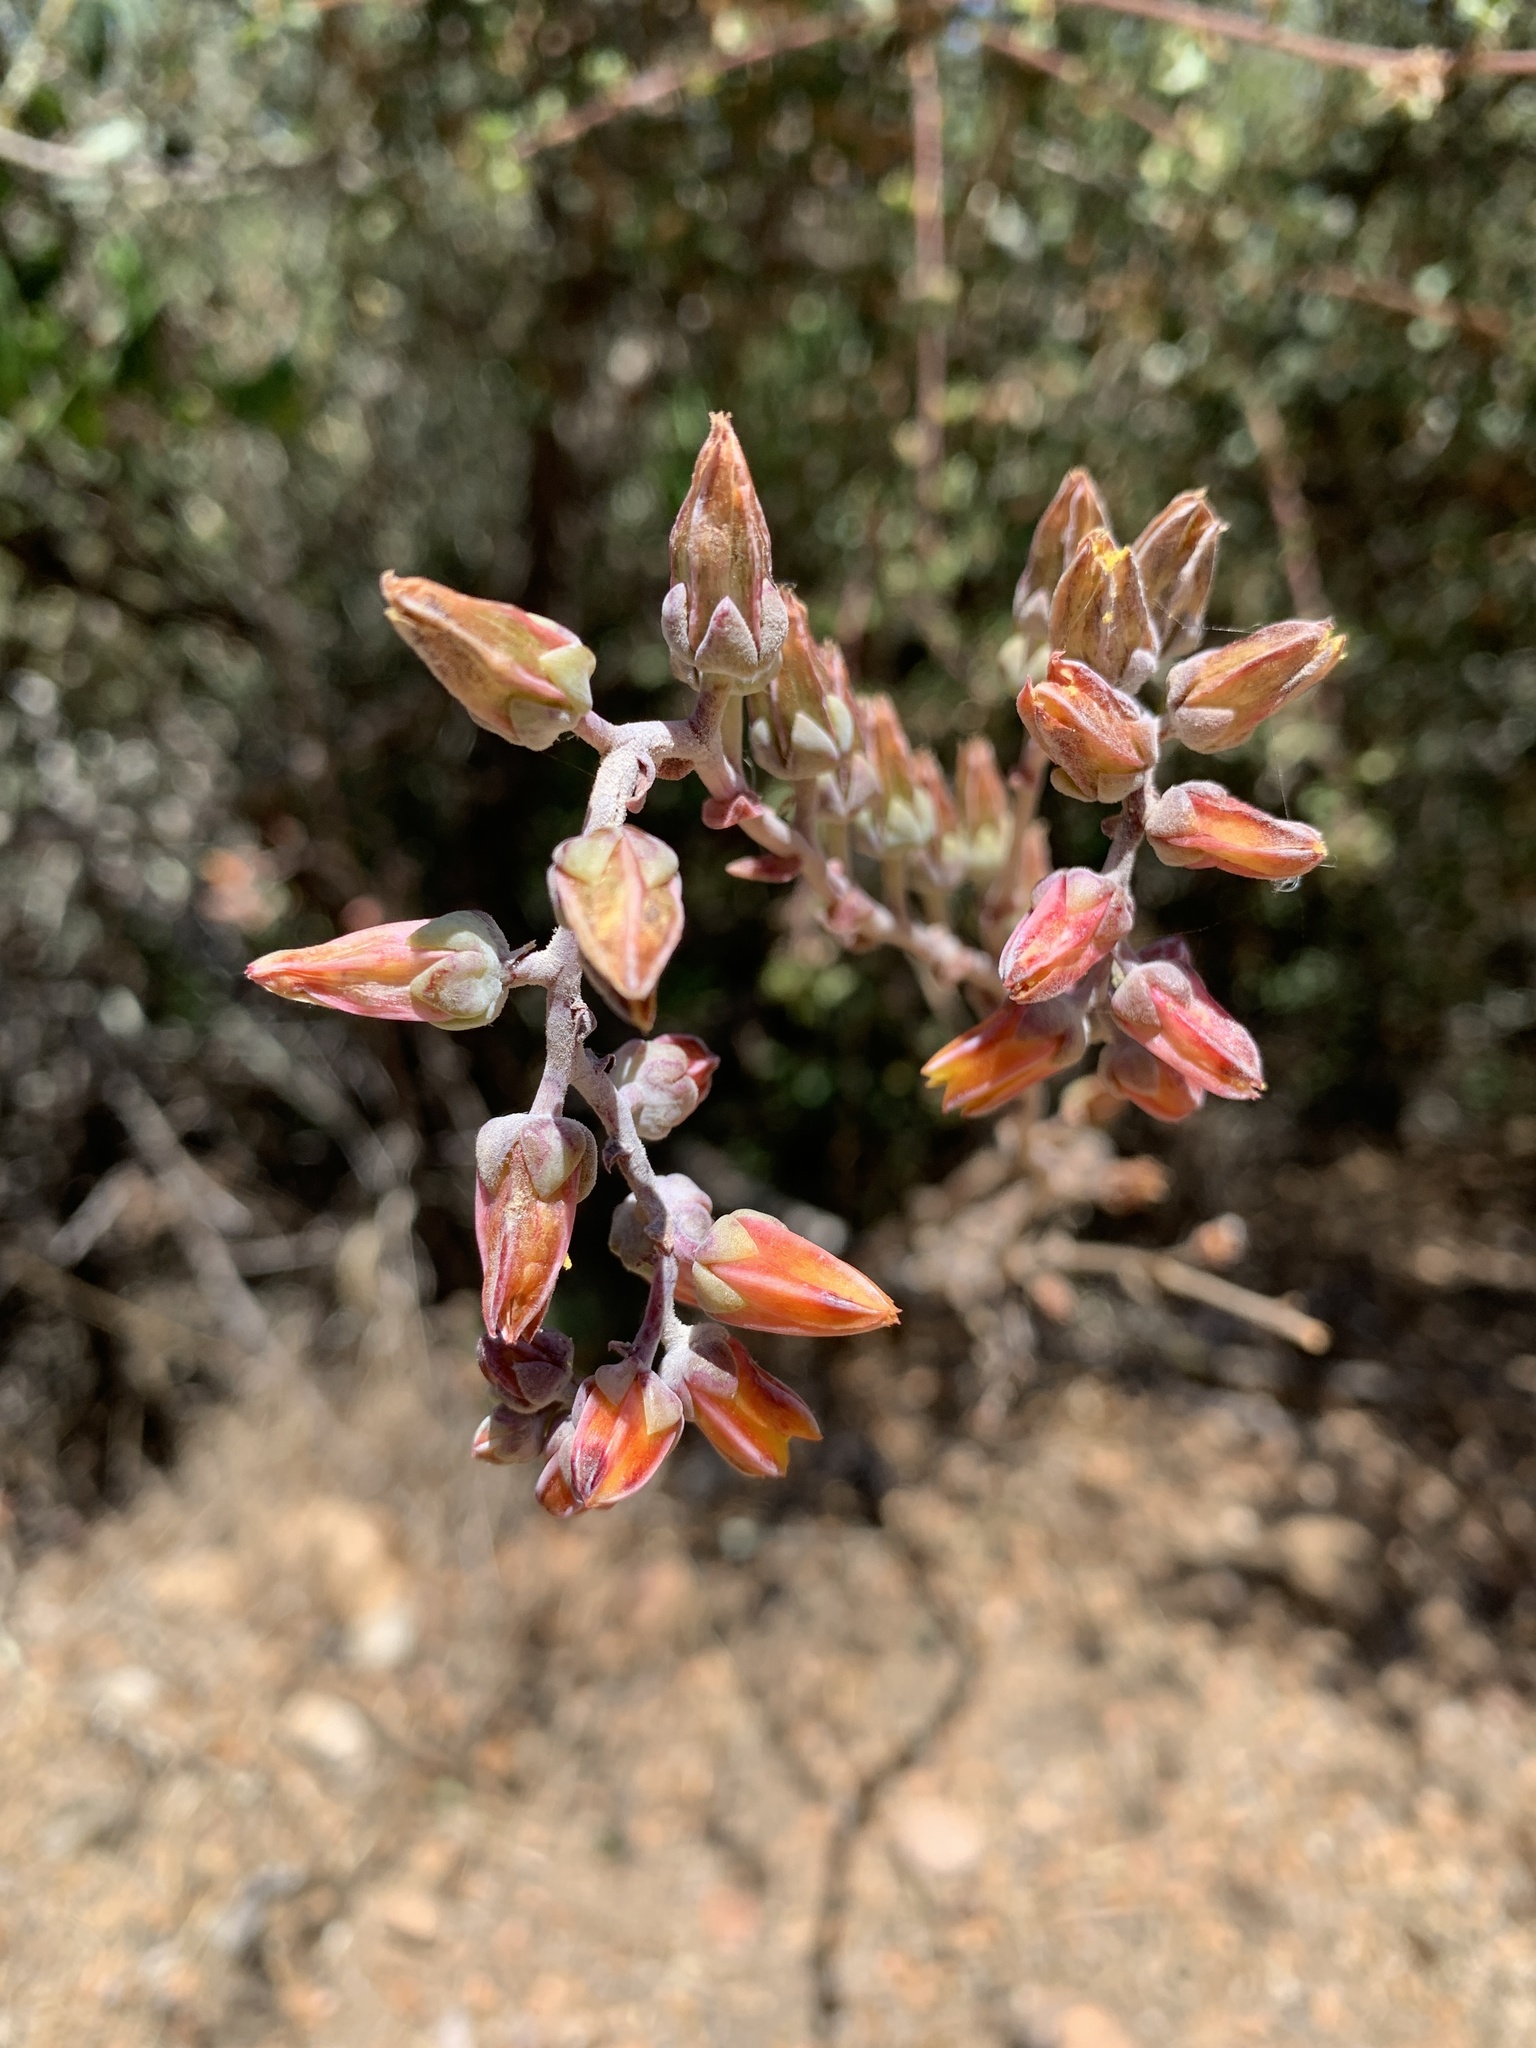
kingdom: Plantae
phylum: Tracheophyta
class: Magnoliopsida
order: Saxifragales
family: Crassulaceae
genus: Dudleya
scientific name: Dudleya lanceolata
